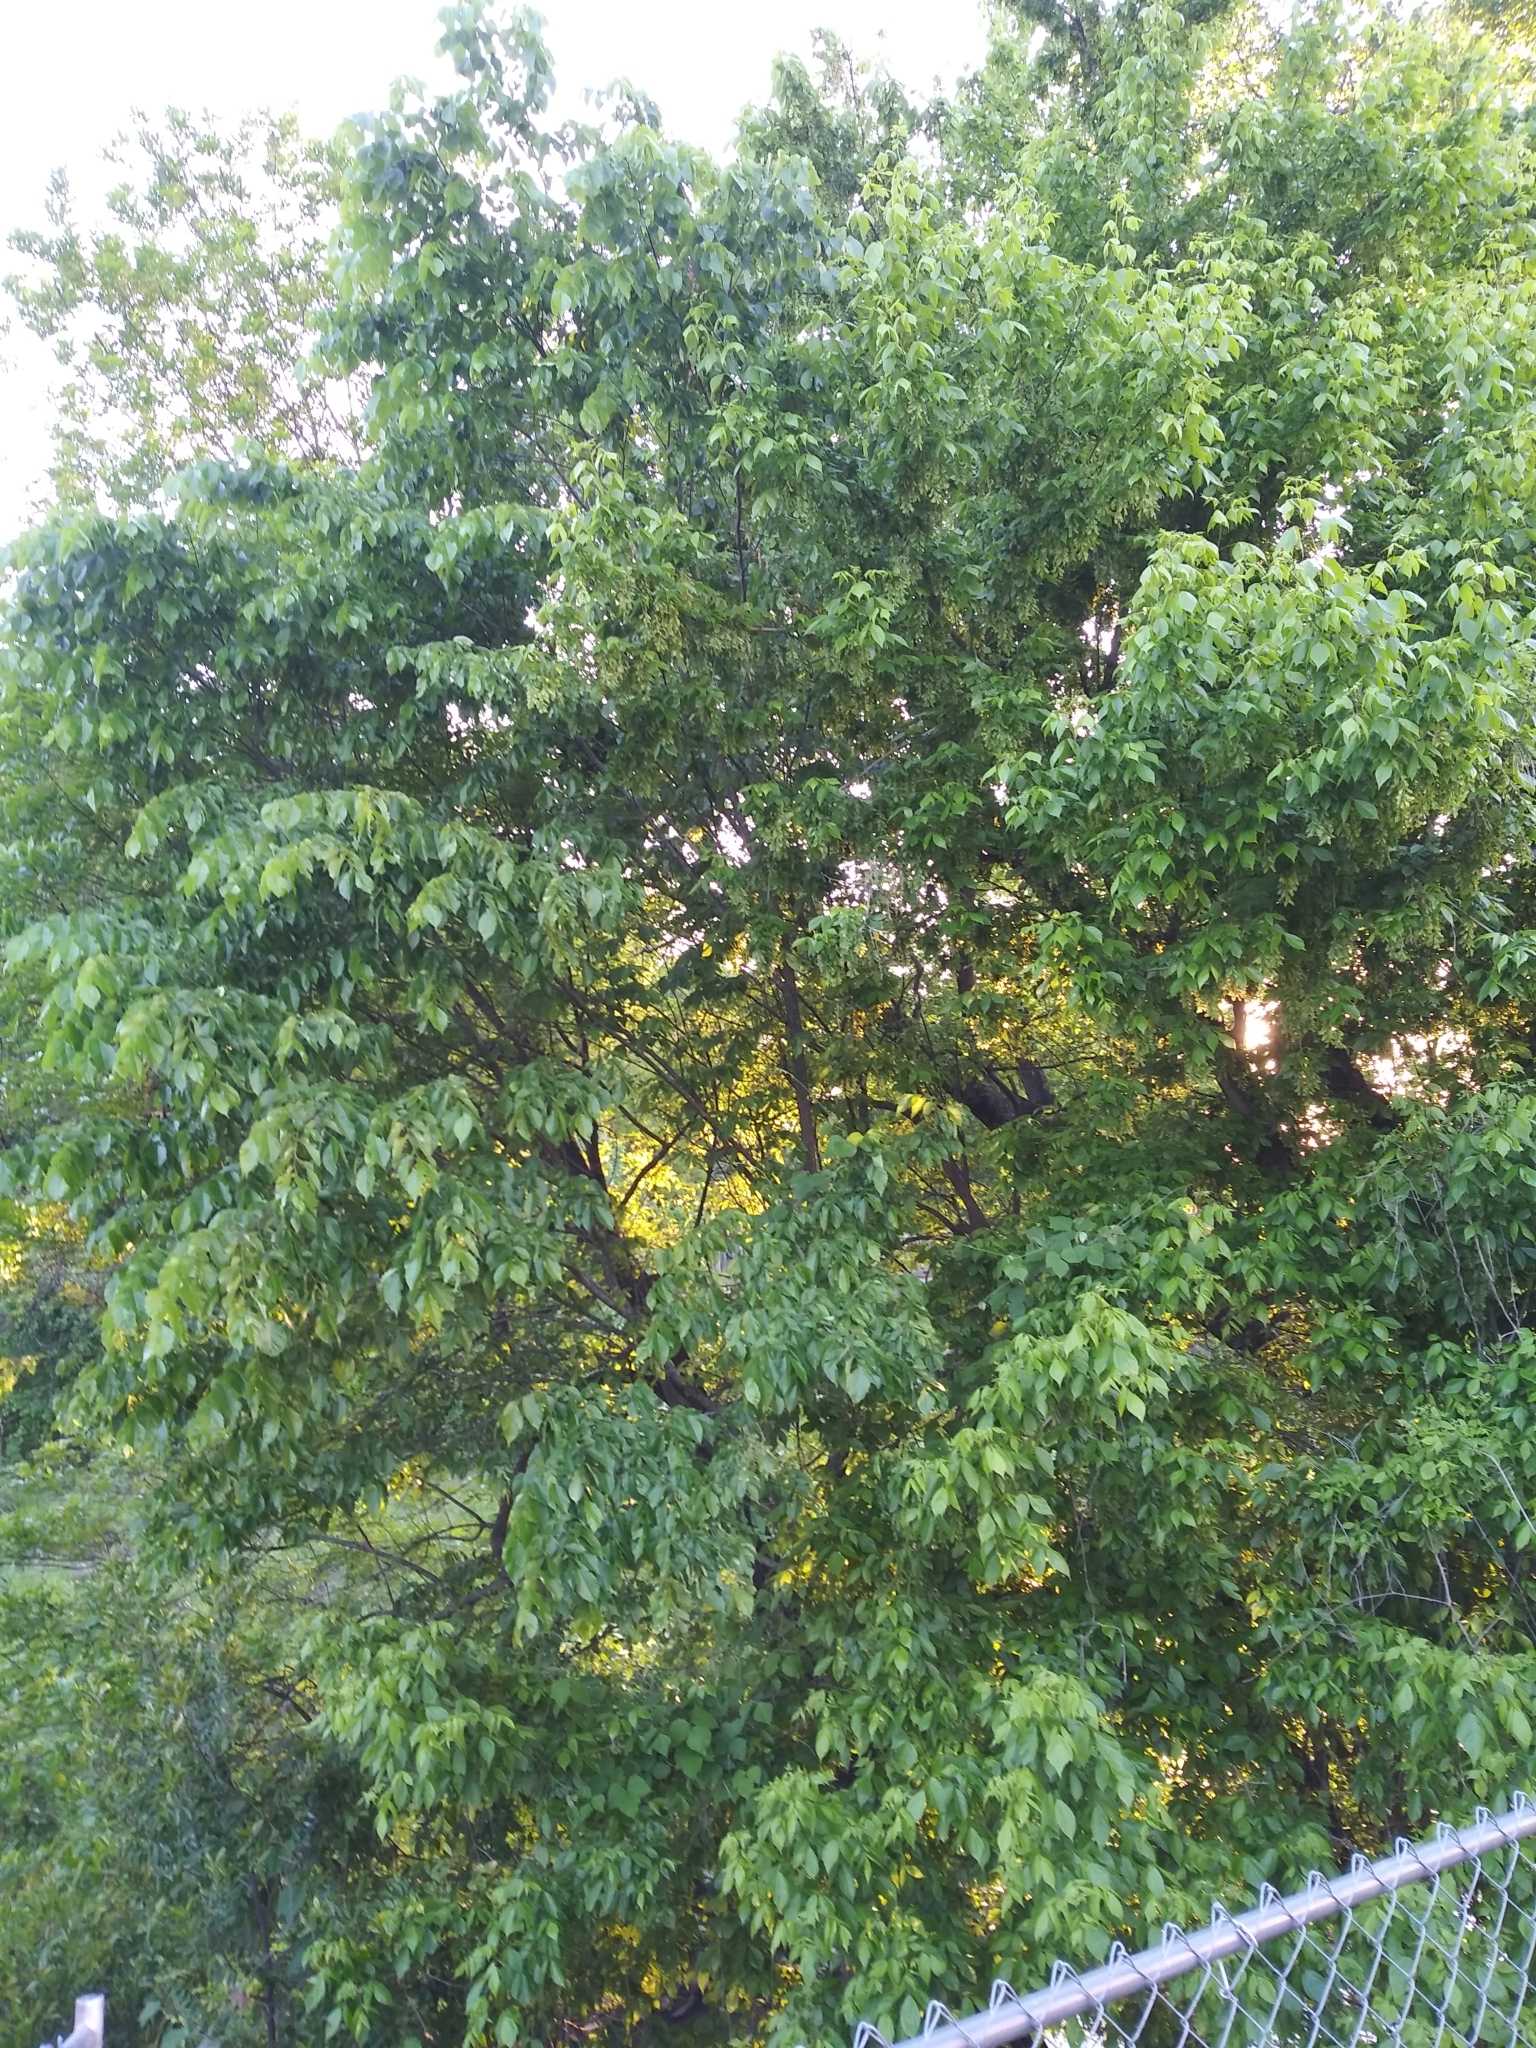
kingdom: Plantae
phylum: Tracheophyta
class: Magnoliopsida
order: Sapindales
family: Sapindaceae
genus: Acer
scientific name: Acer negundo
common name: Ashleaf maple
